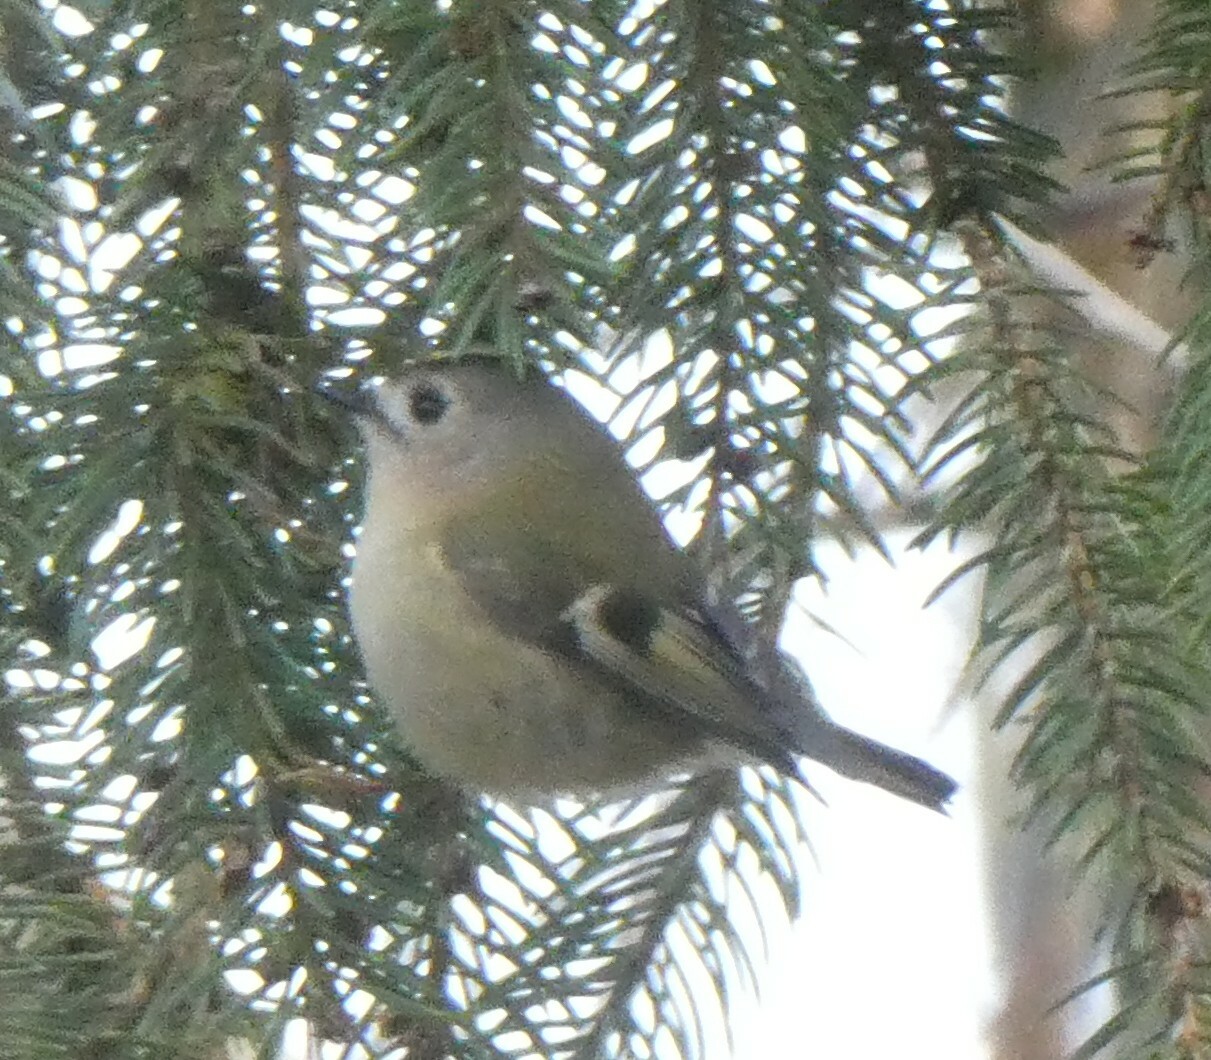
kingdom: Animalia
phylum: Chordata
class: Aves
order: Passeriformes
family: Regulidae
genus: Regulus
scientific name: Regulus regulus
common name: Goldcrest
